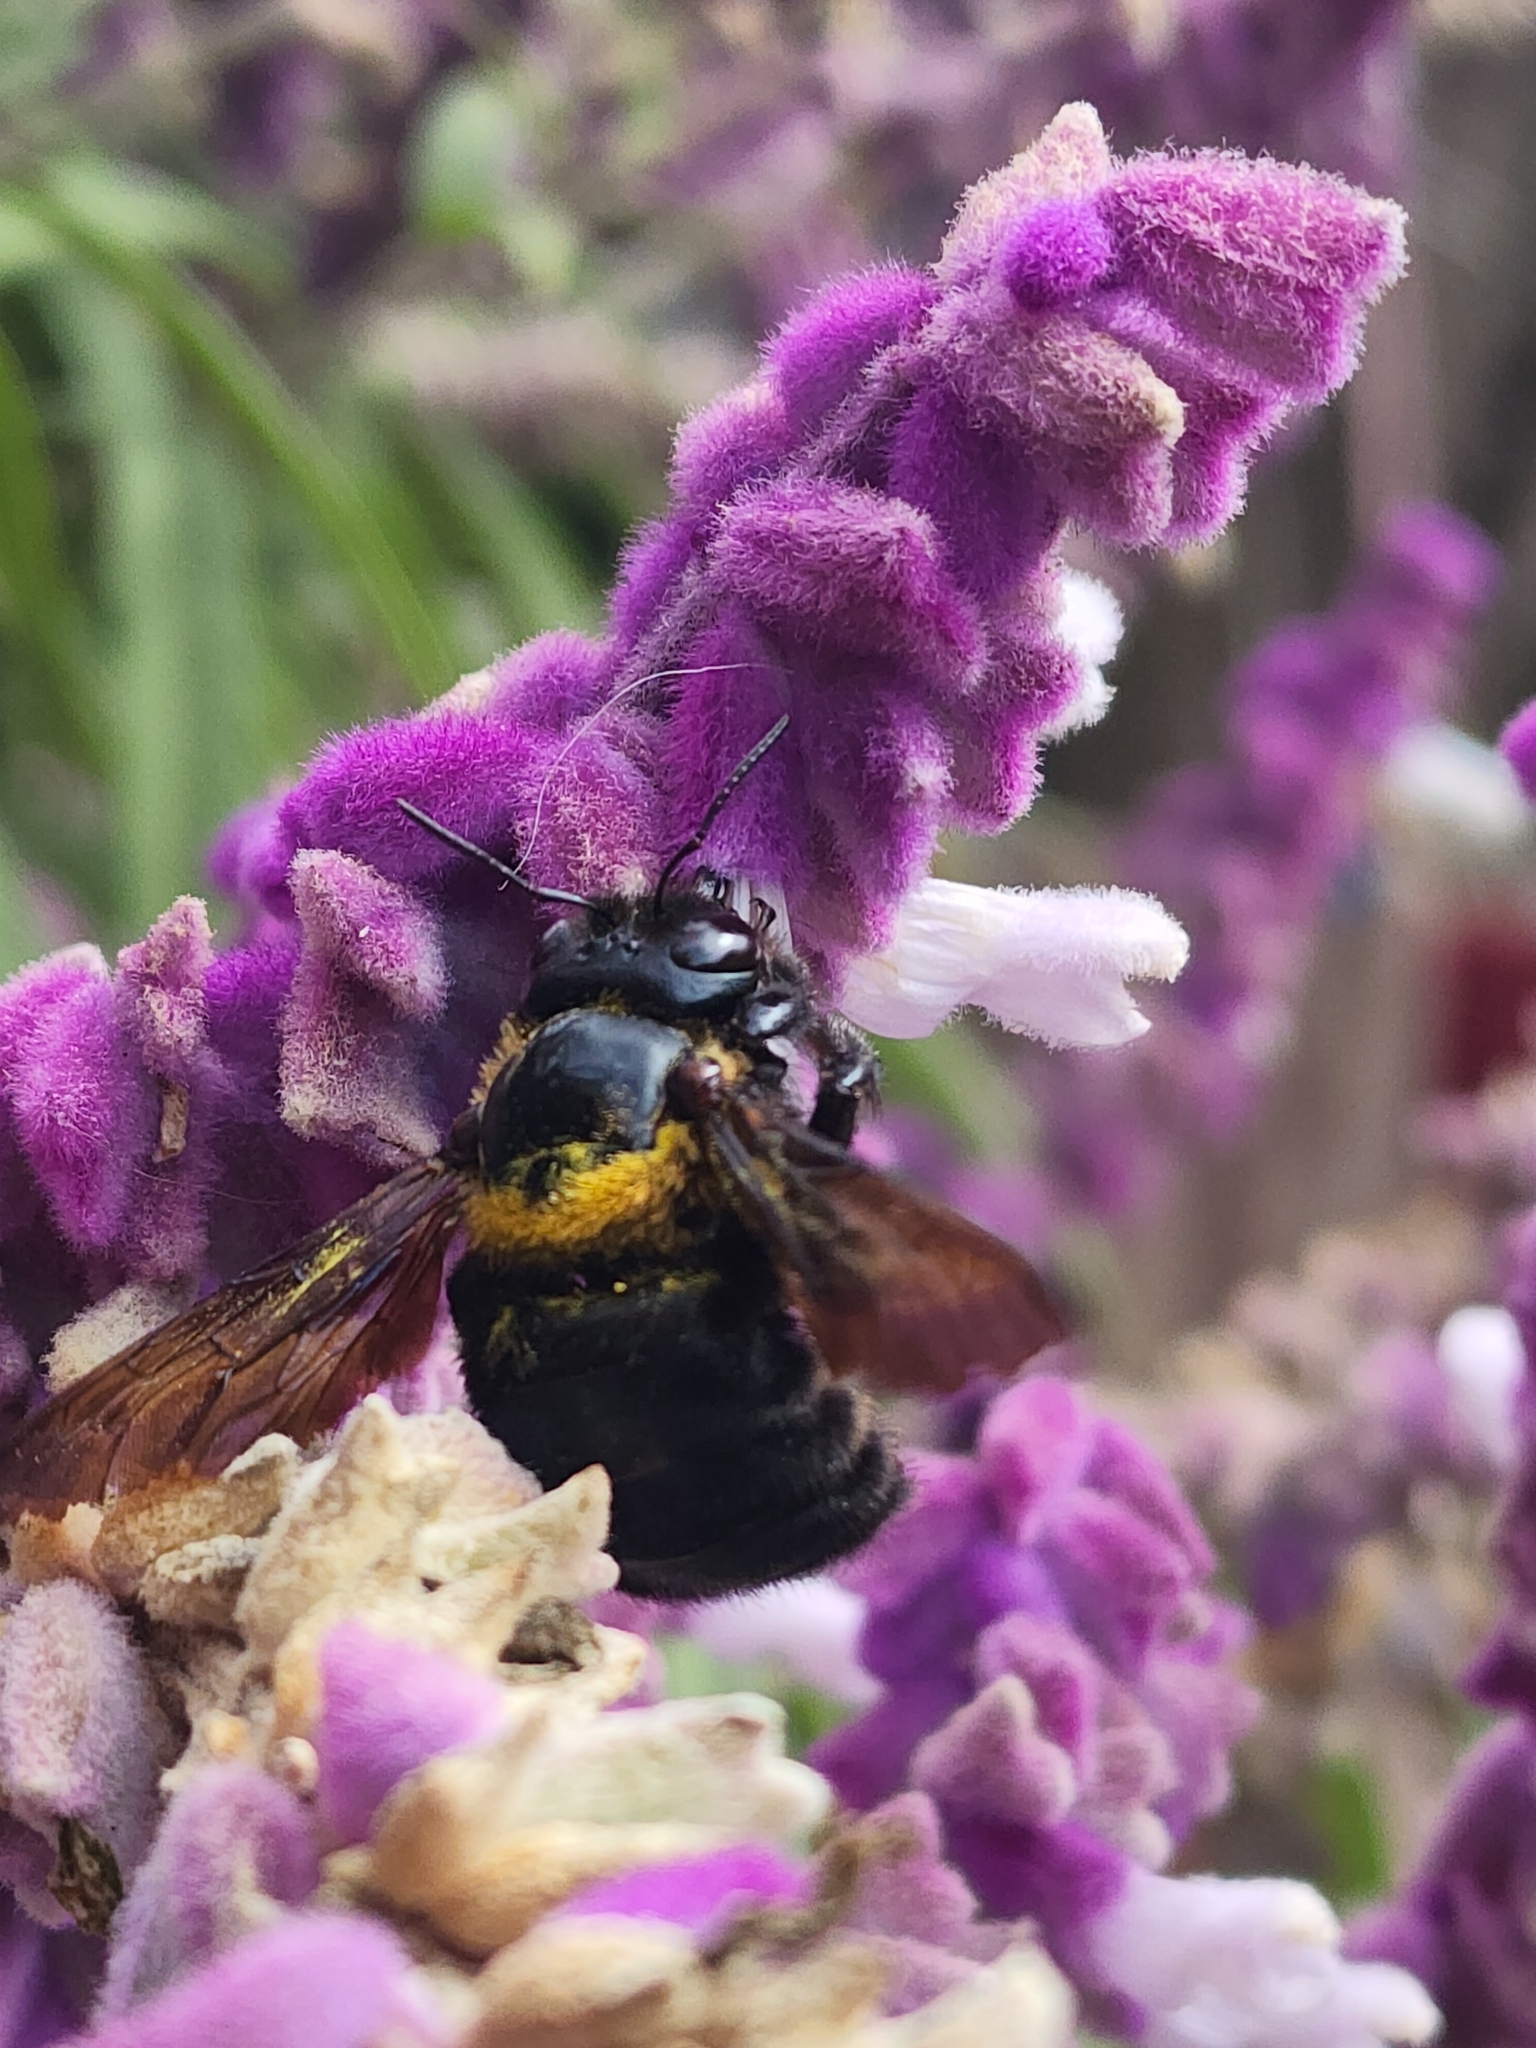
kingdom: Animalia
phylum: Arthropoda
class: Insecta
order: Hymenoptera
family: Apidae
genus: Xylocopa
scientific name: Xylocopa eximia
